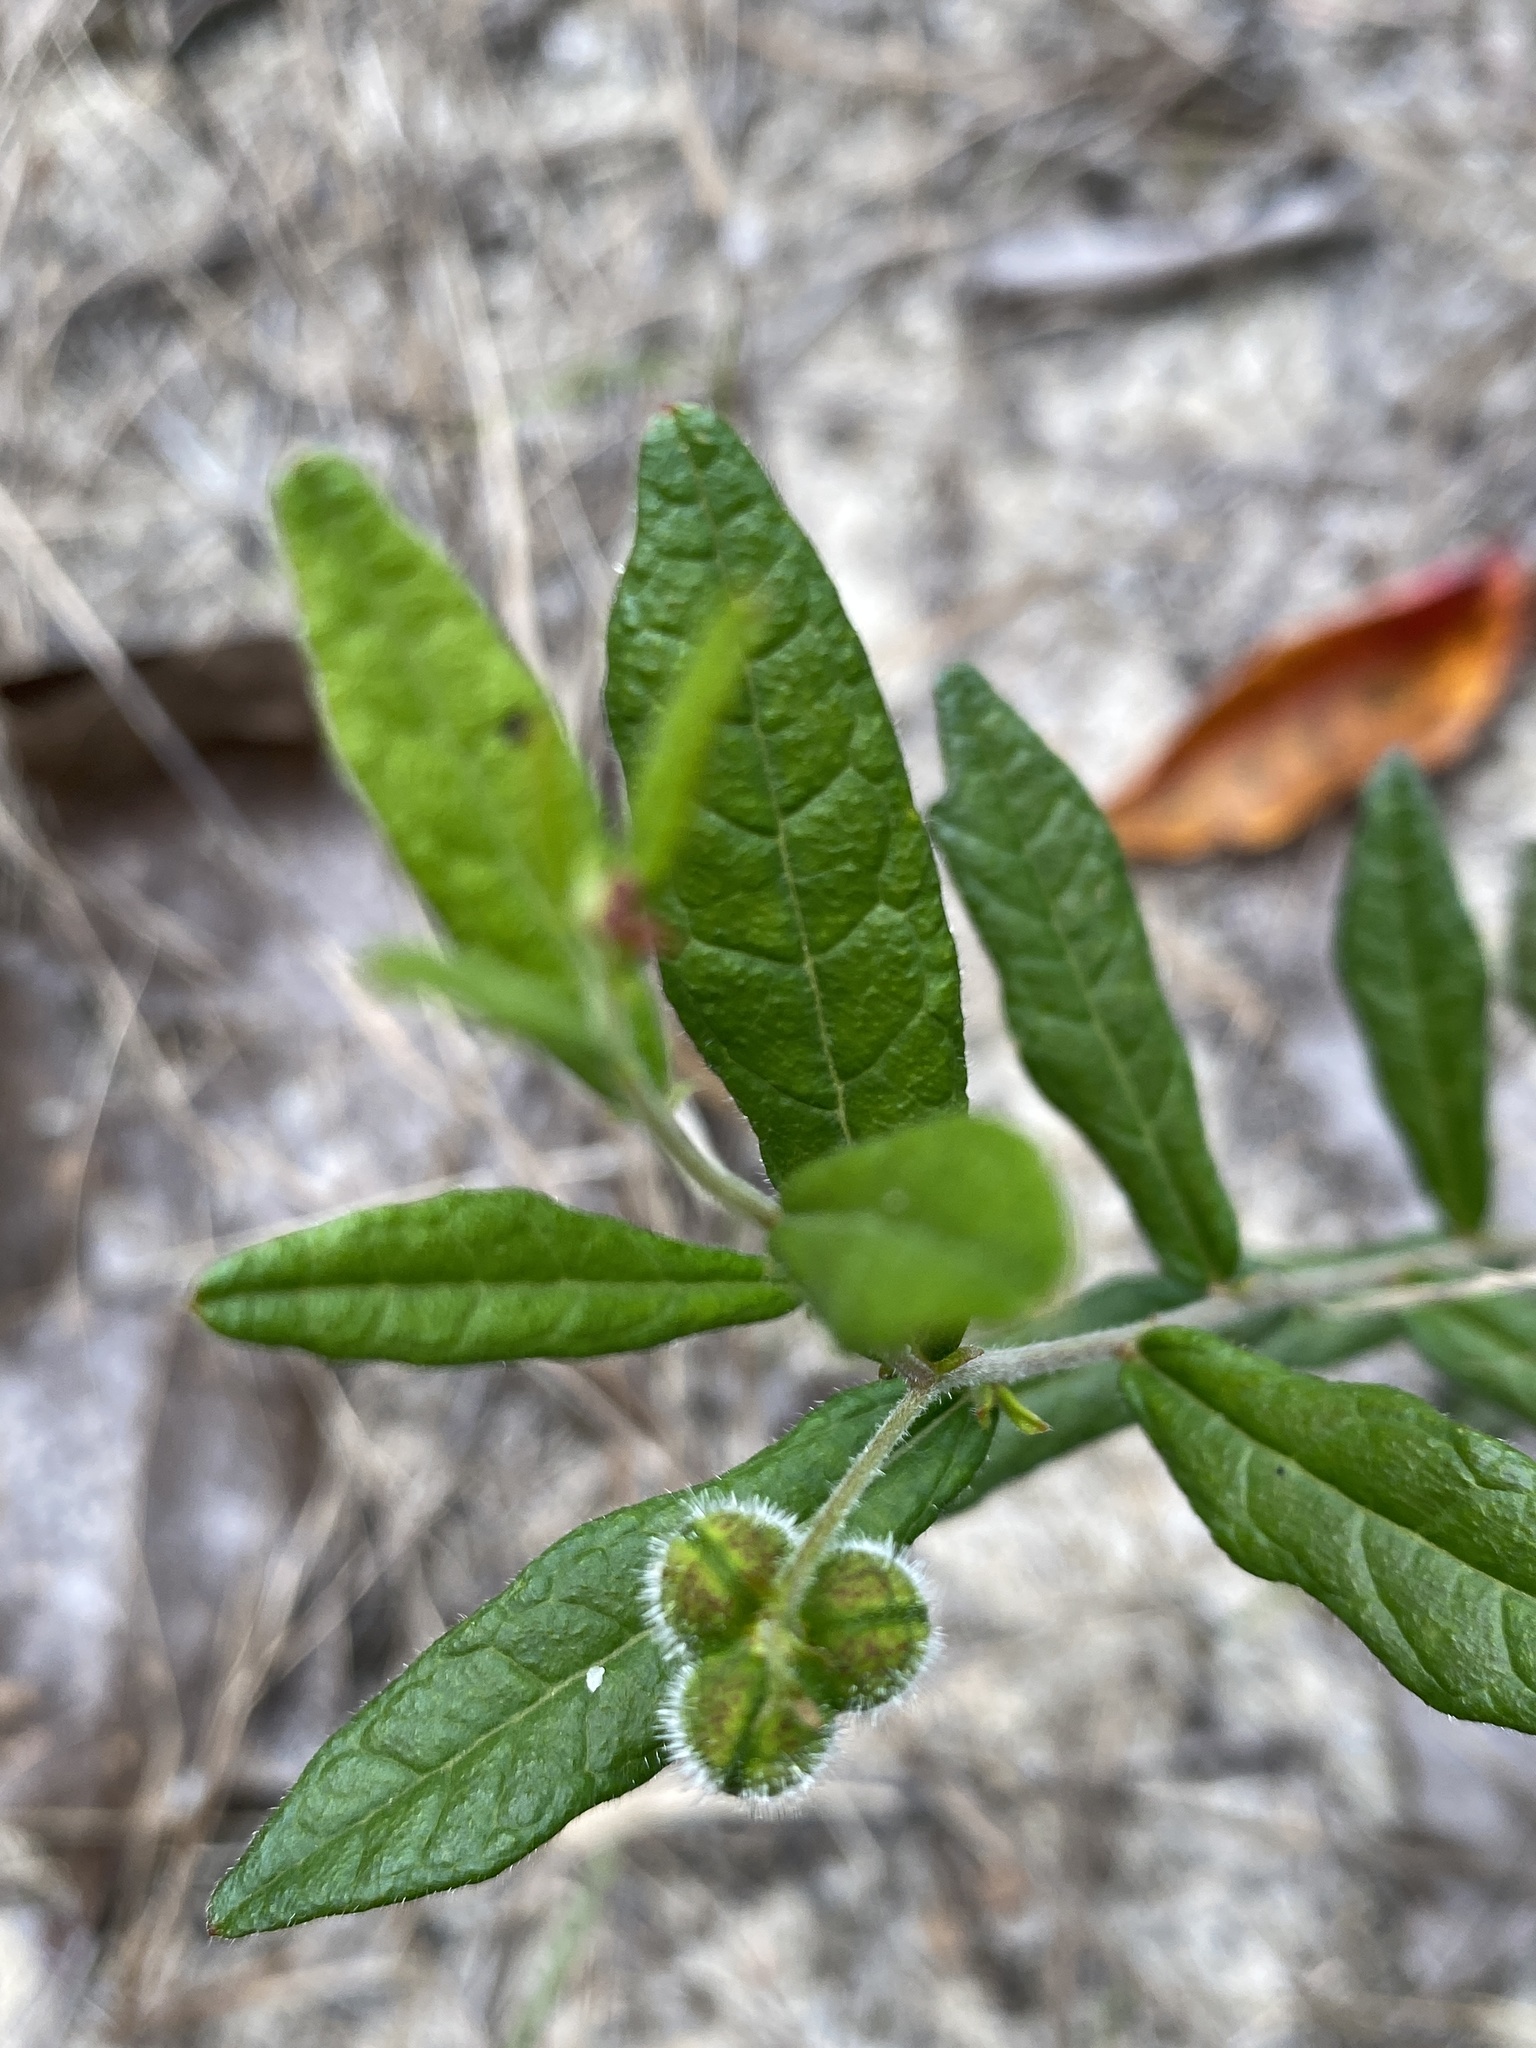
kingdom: Plantae
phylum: Tracheophyta
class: Magnoliopsida
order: Malpighiales
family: Euphorbiaceae
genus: Tragia
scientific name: Tragia urens
